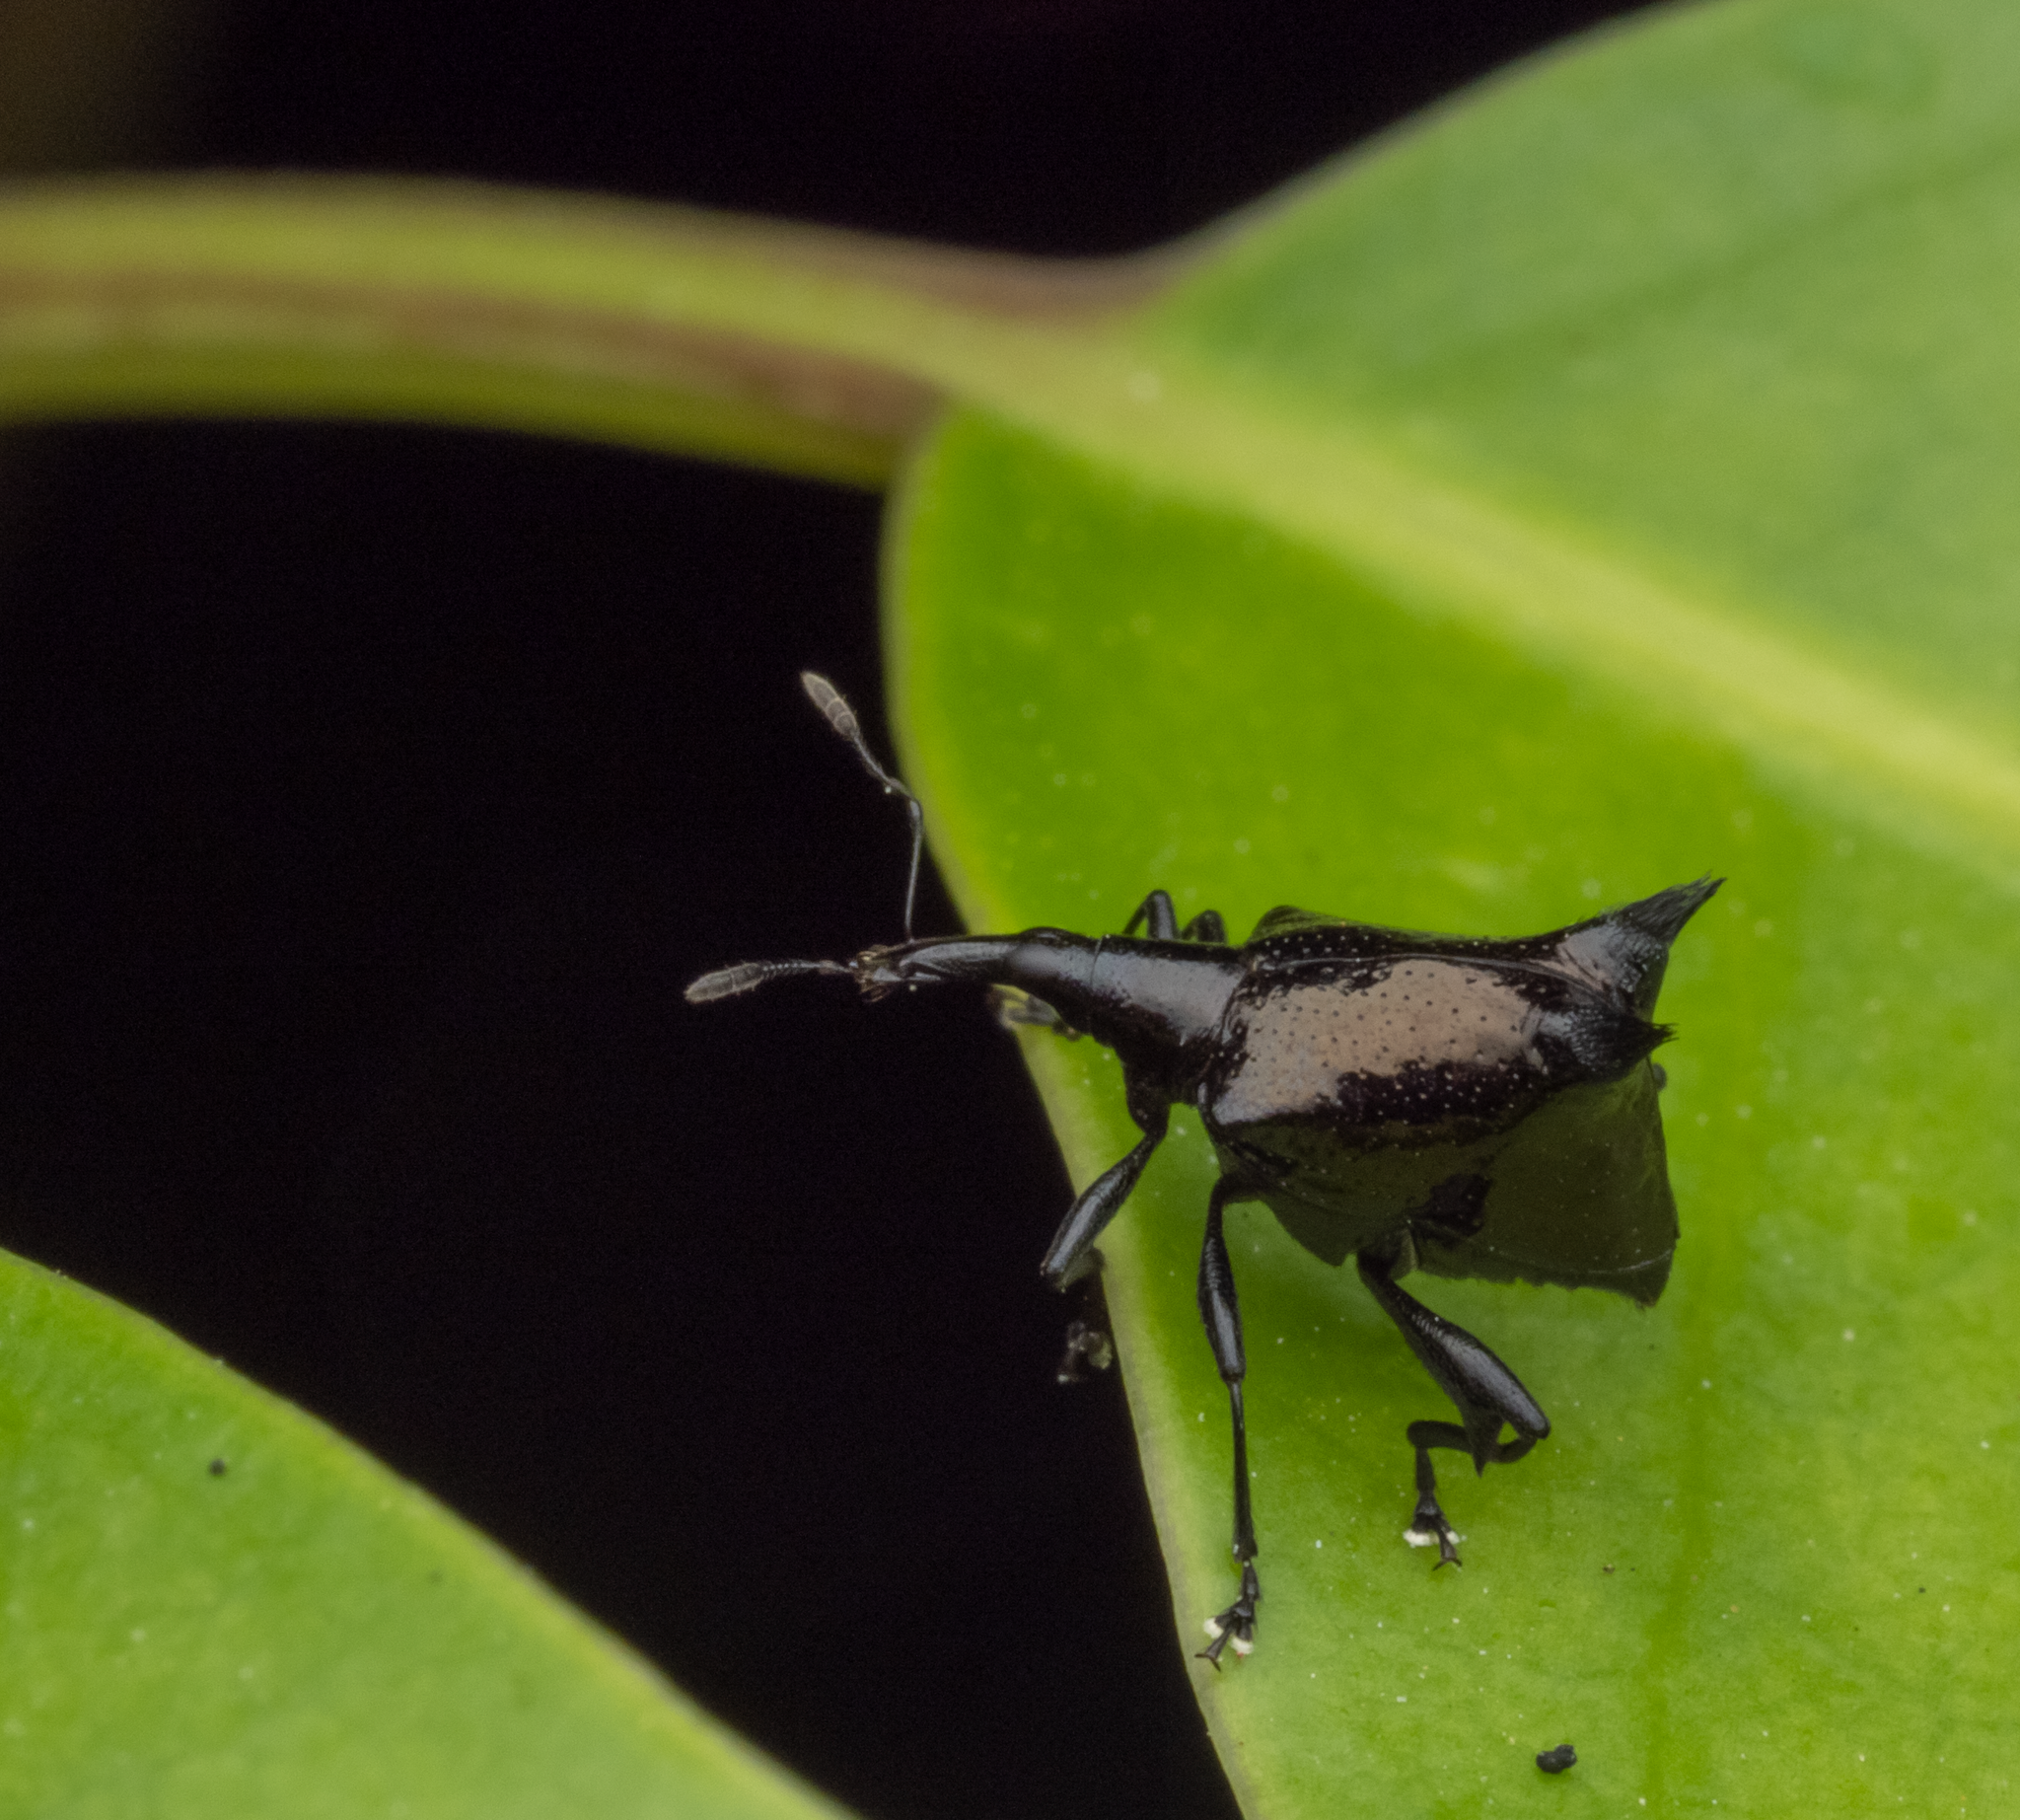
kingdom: Animalia
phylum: Arthropoda
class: Insecta
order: Coleoptera
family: Curculionidae
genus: Scolopterus
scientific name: Scolopterus penicillatus
